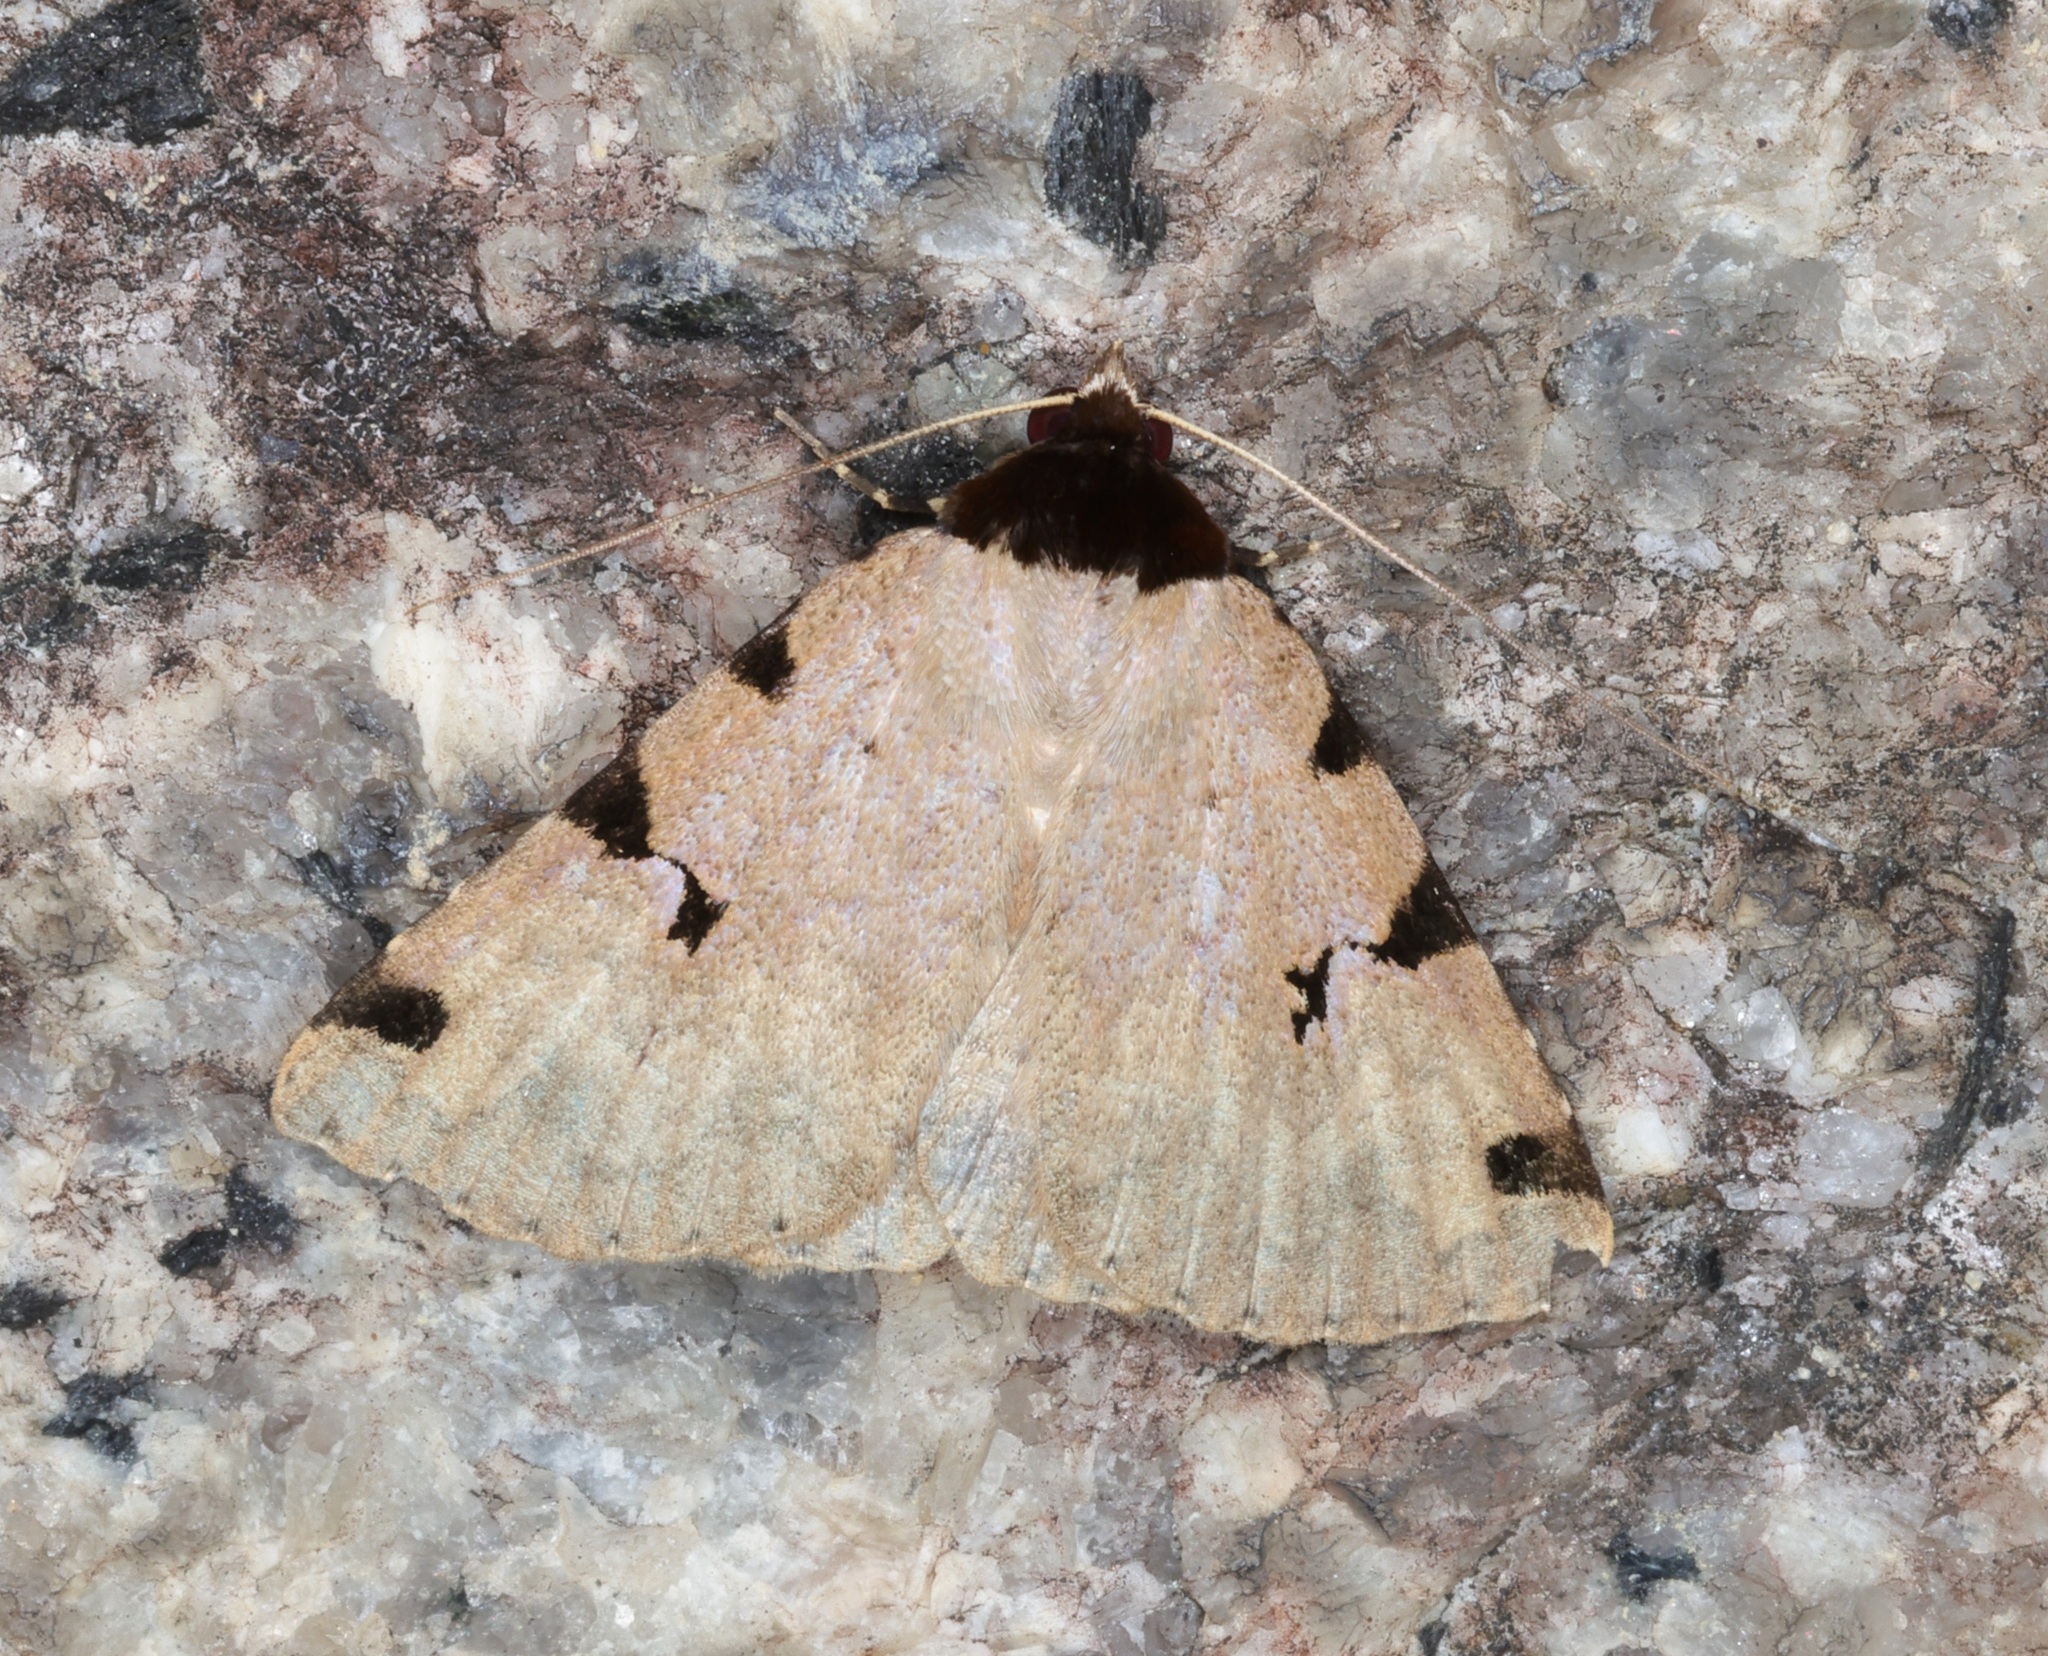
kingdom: Animalia
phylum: Arthropoda
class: Insecta
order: Lepidoptera
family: Erebidae
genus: Rema
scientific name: Rema costimacula
